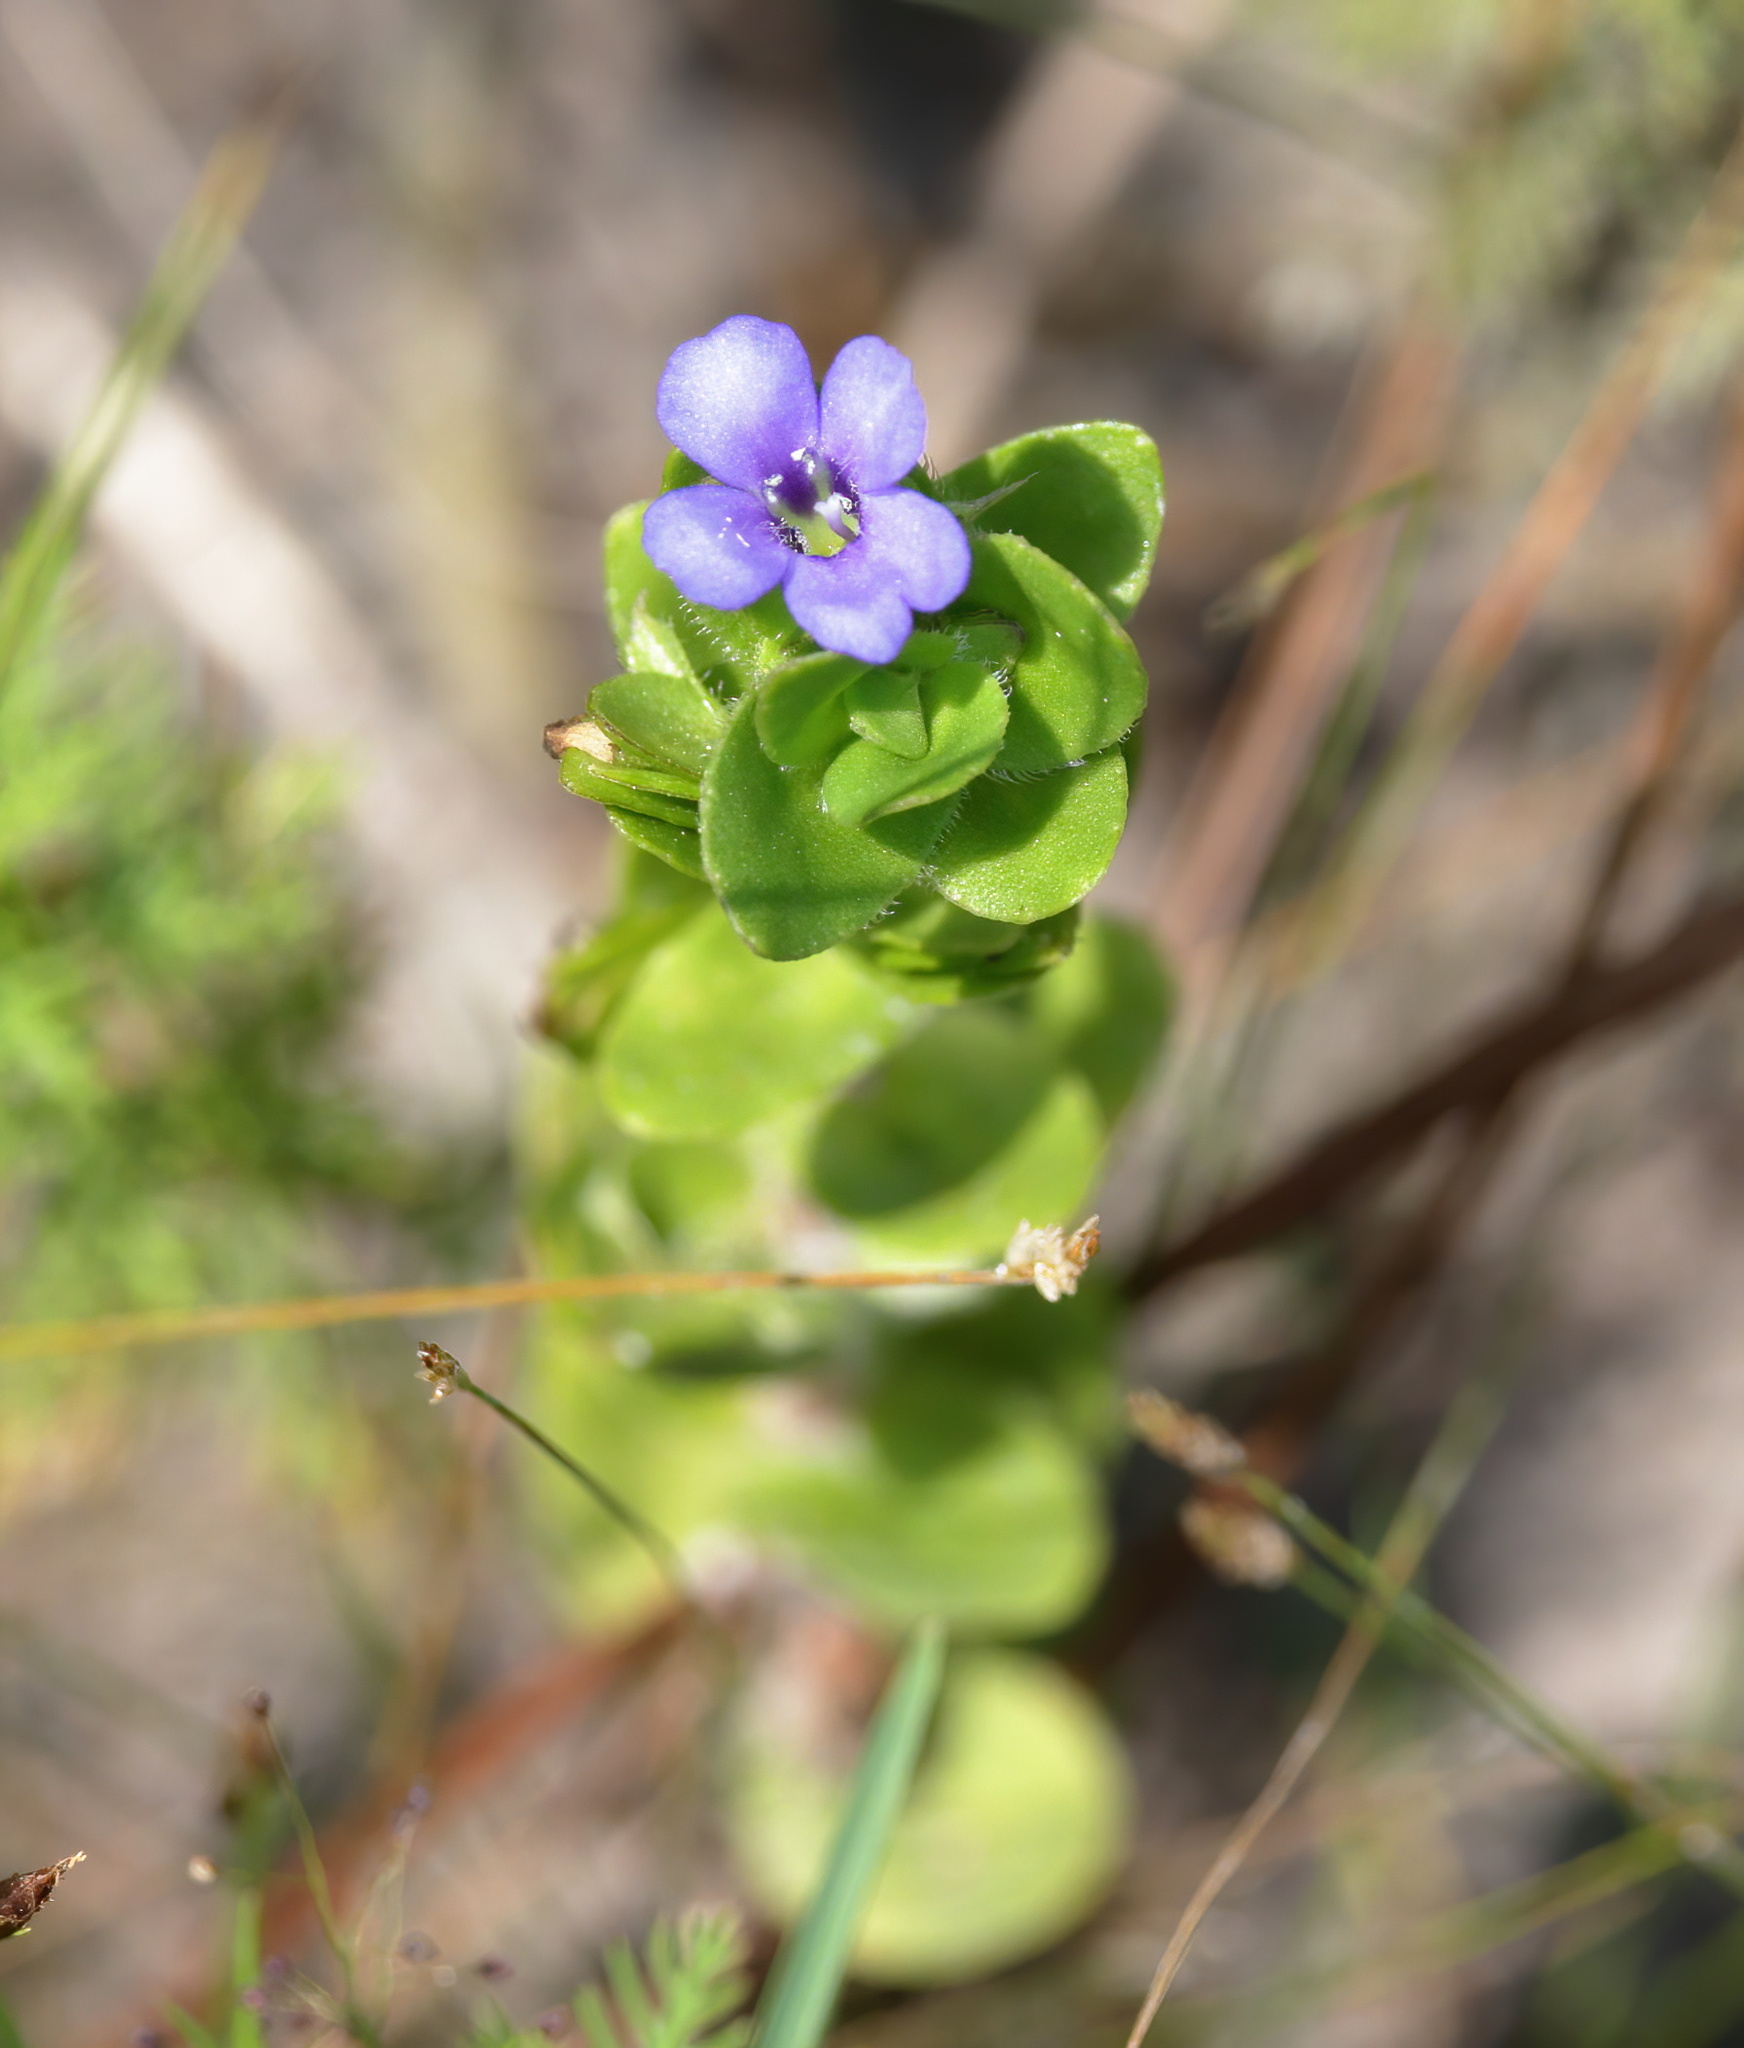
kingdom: Plantae
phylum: Tracheophyta
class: Magnoliopsida
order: Lamiales
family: Plantaginaceae
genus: Bacopa
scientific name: Bacopa caroliniana
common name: Lemon bacopa
